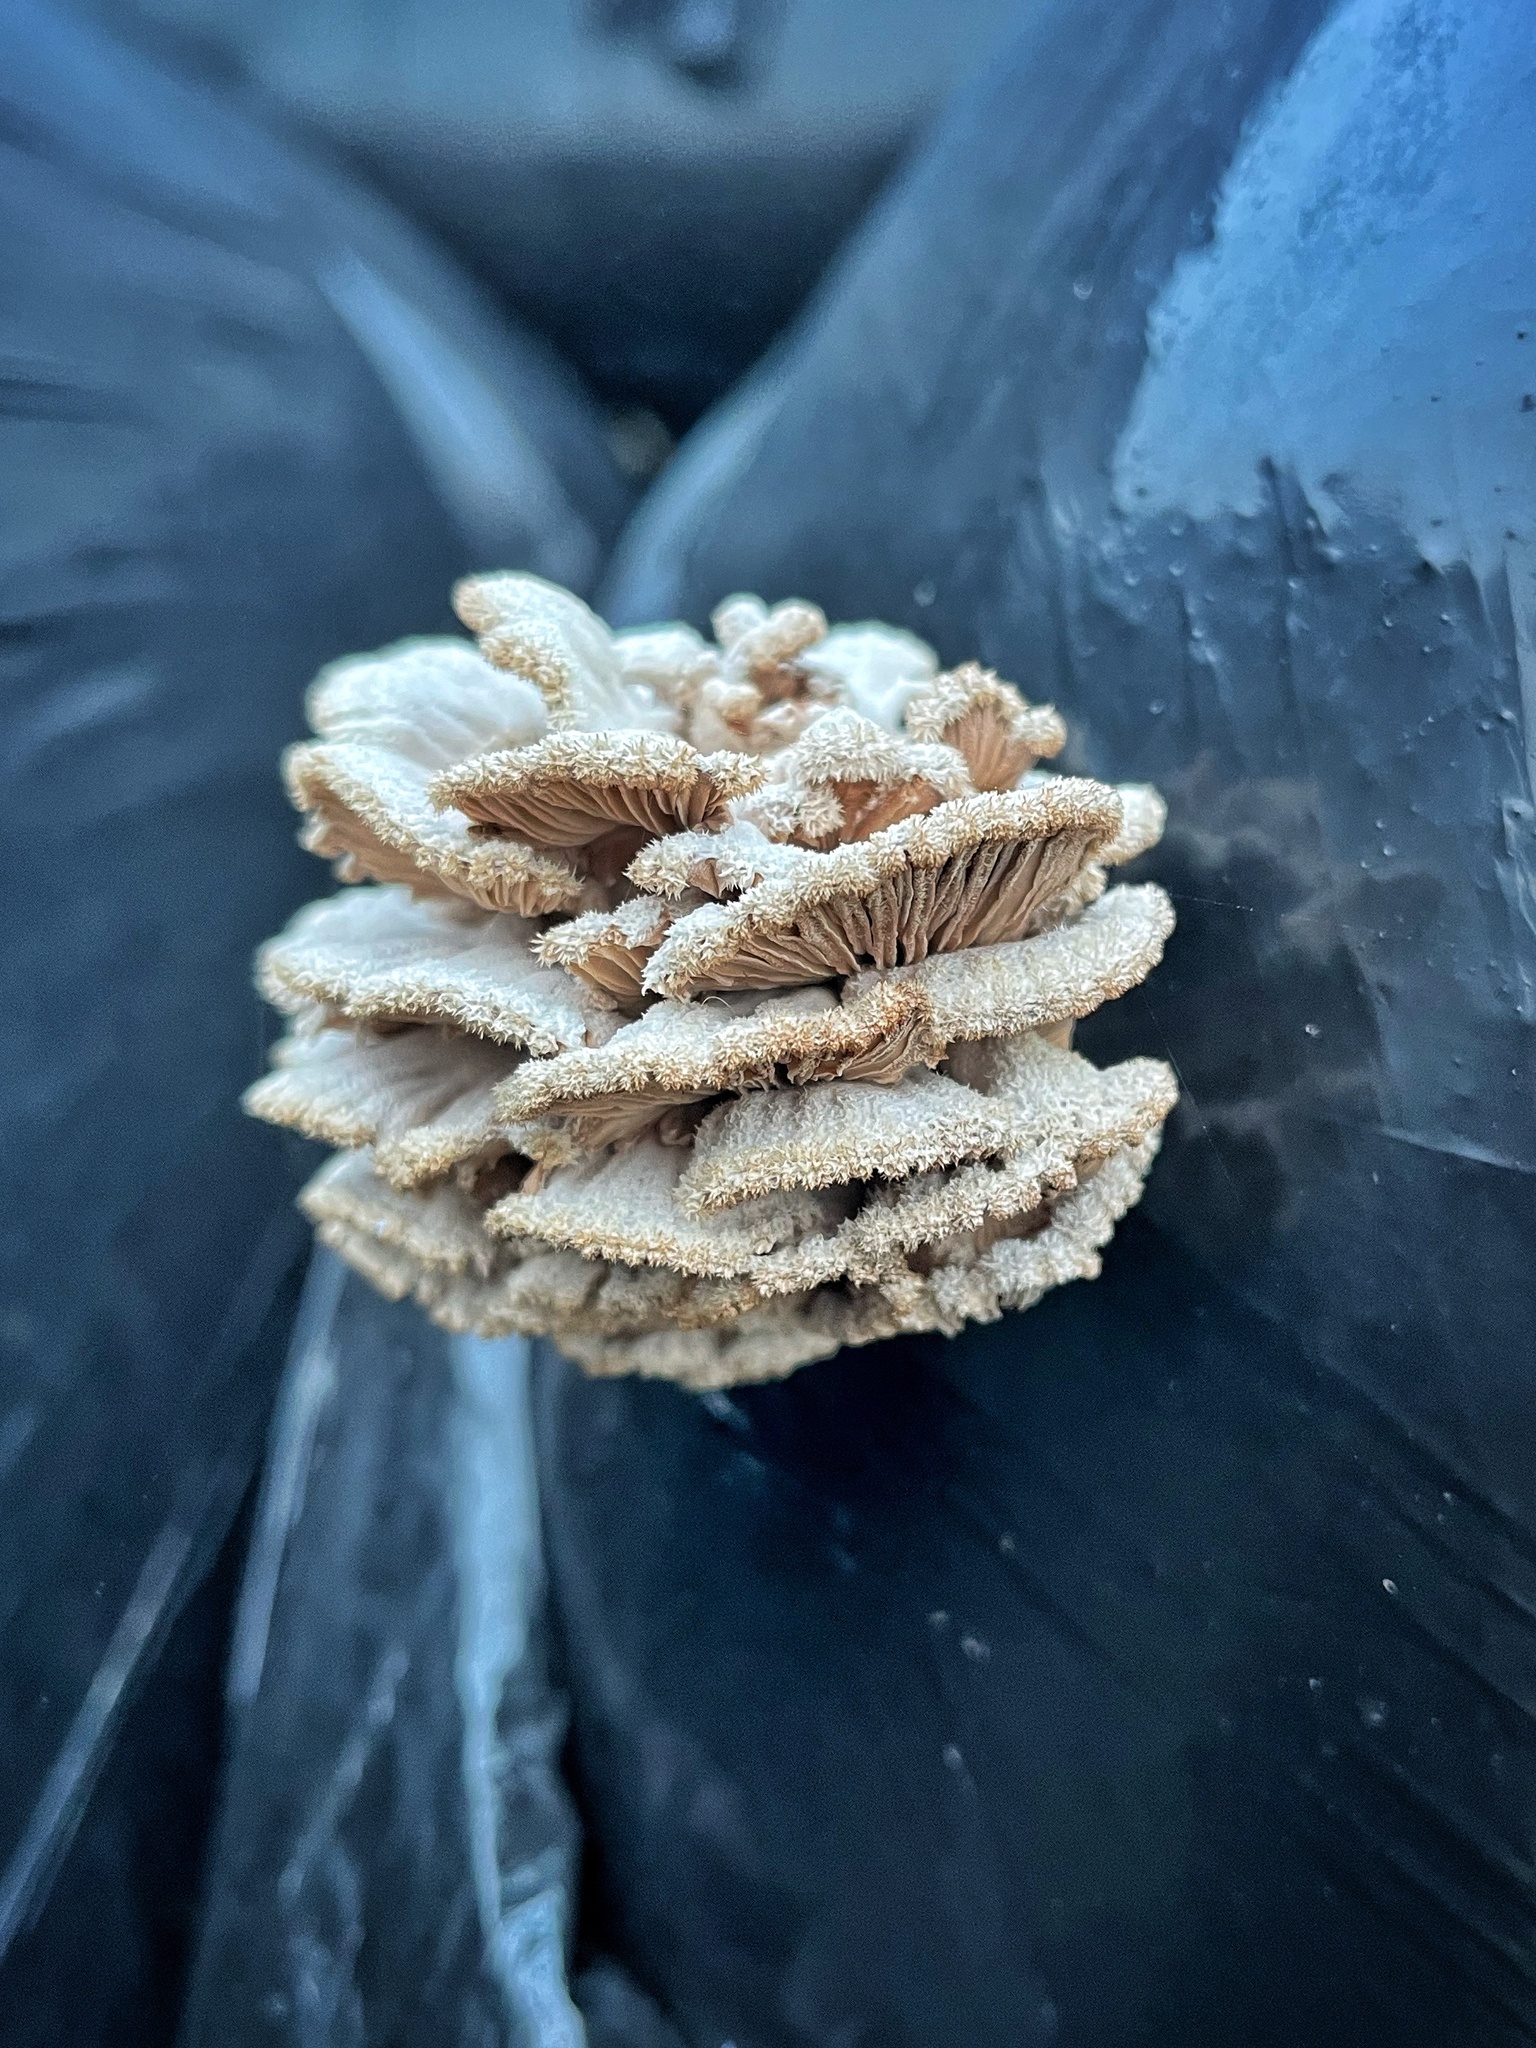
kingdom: Fungi
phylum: Basidiomycota
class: Agaricomycetes
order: Agaricales
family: Schizophyllaceae
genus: Schizophyllum
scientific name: Schizophyllum commune
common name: Common porecrust
